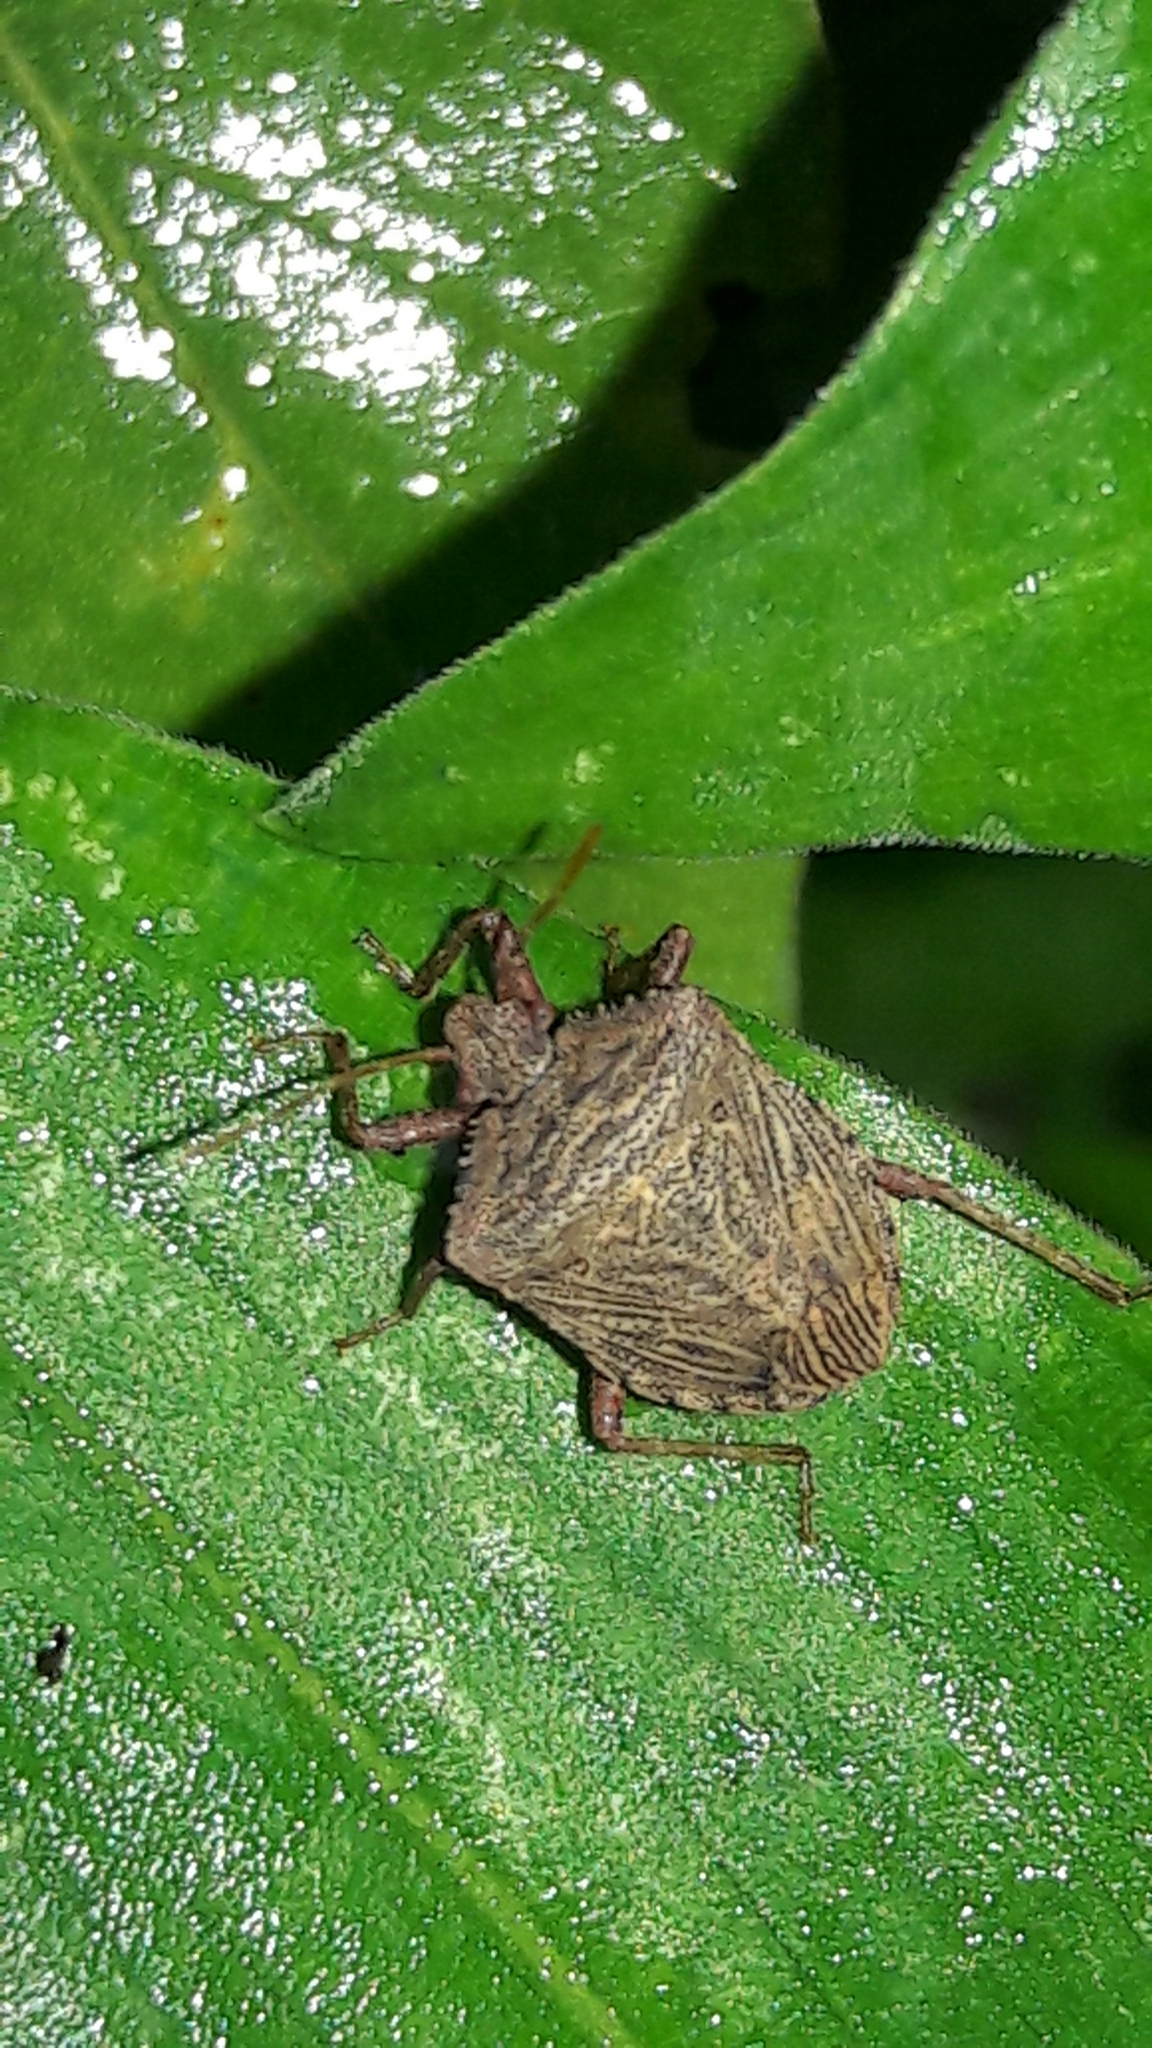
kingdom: Animalia
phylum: Arthropoda
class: Insecta
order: Hemiptera
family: Pentatomidae
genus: Picromerus
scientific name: Picromerus griseus
